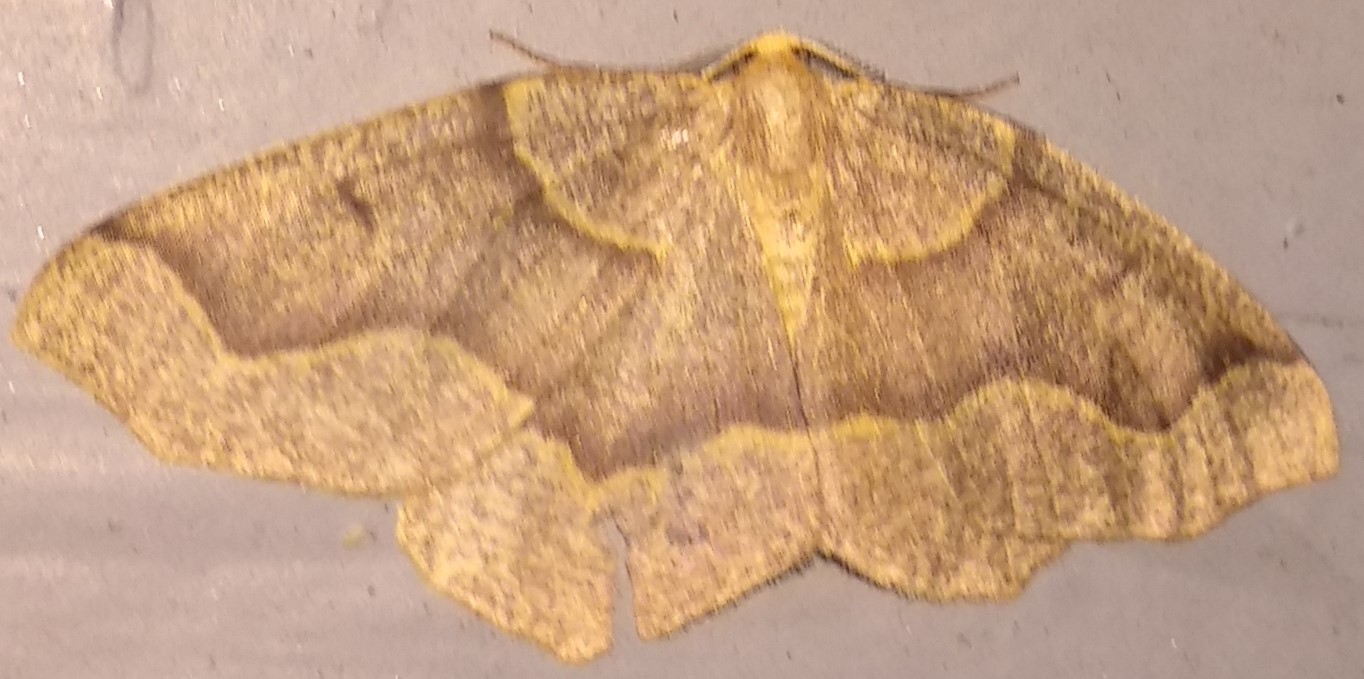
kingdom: Animalia
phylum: Arthropoda
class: Insecta
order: Lepidoptera
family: Geometridae
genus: Lambdina
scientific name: Lambdina fiscellaria
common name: Hemlock looper
